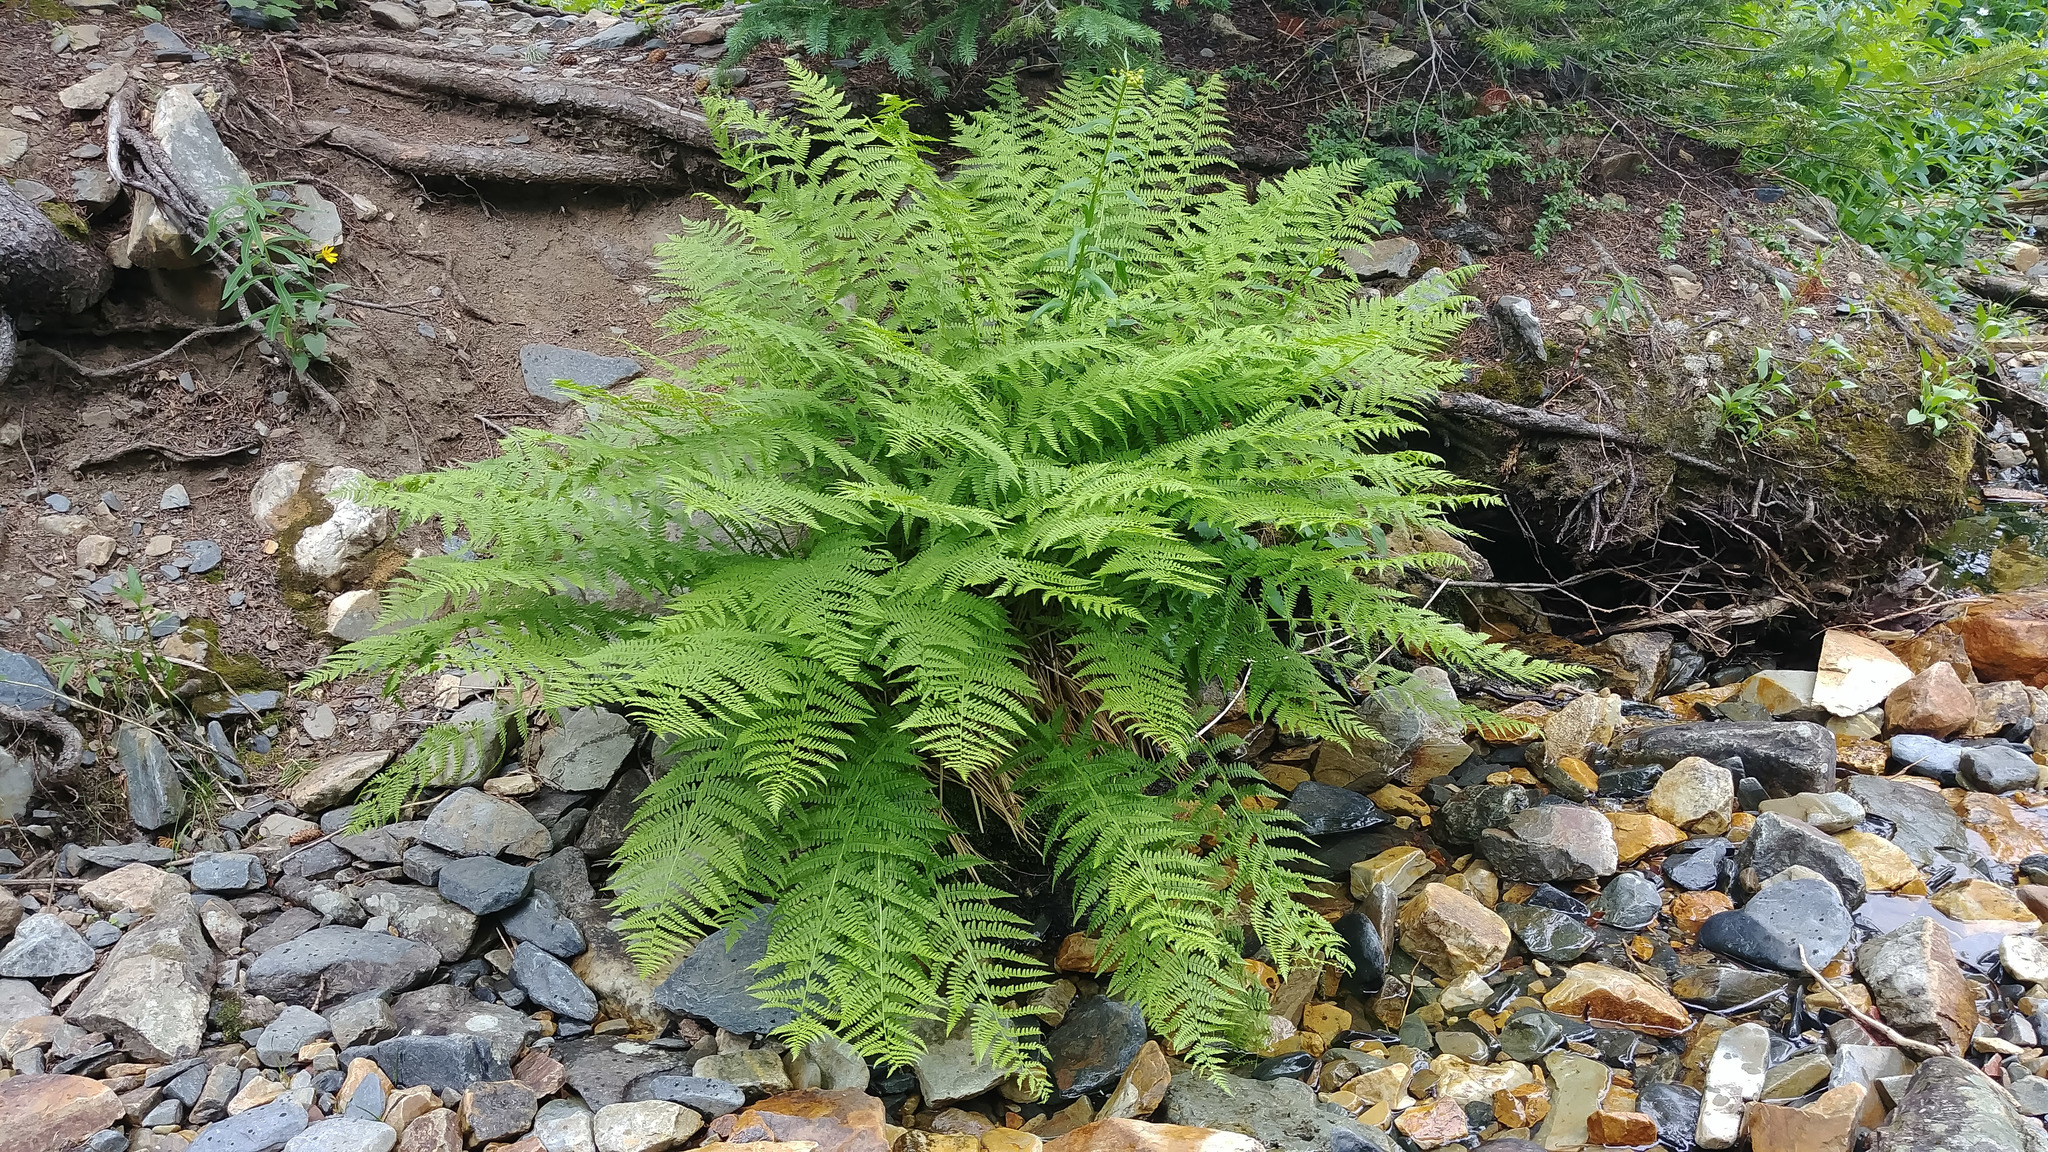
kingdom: Plantae
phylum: Tracheophyta
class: Polypodiopsida
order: Polypodiales
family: Athyriaceae
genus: Athyrium
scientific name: Athyrium filix-femina
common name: Lady fern
